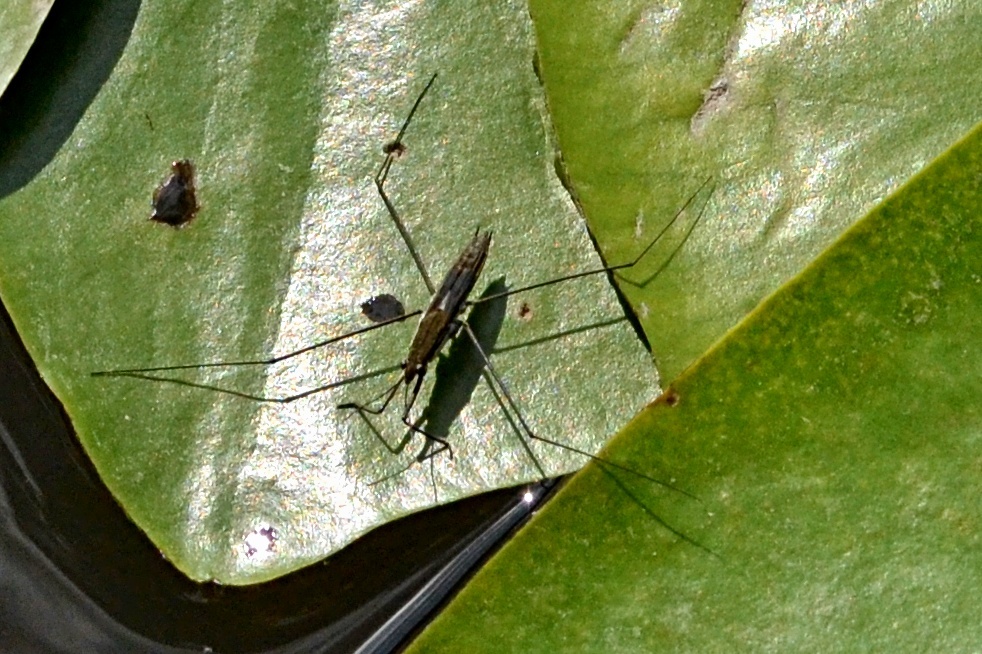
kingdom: Animalia
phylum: Arthropoda
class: Insecta
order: Hemiptera
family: Gerridae
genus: Aquarius
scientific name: Aquarius paludum
